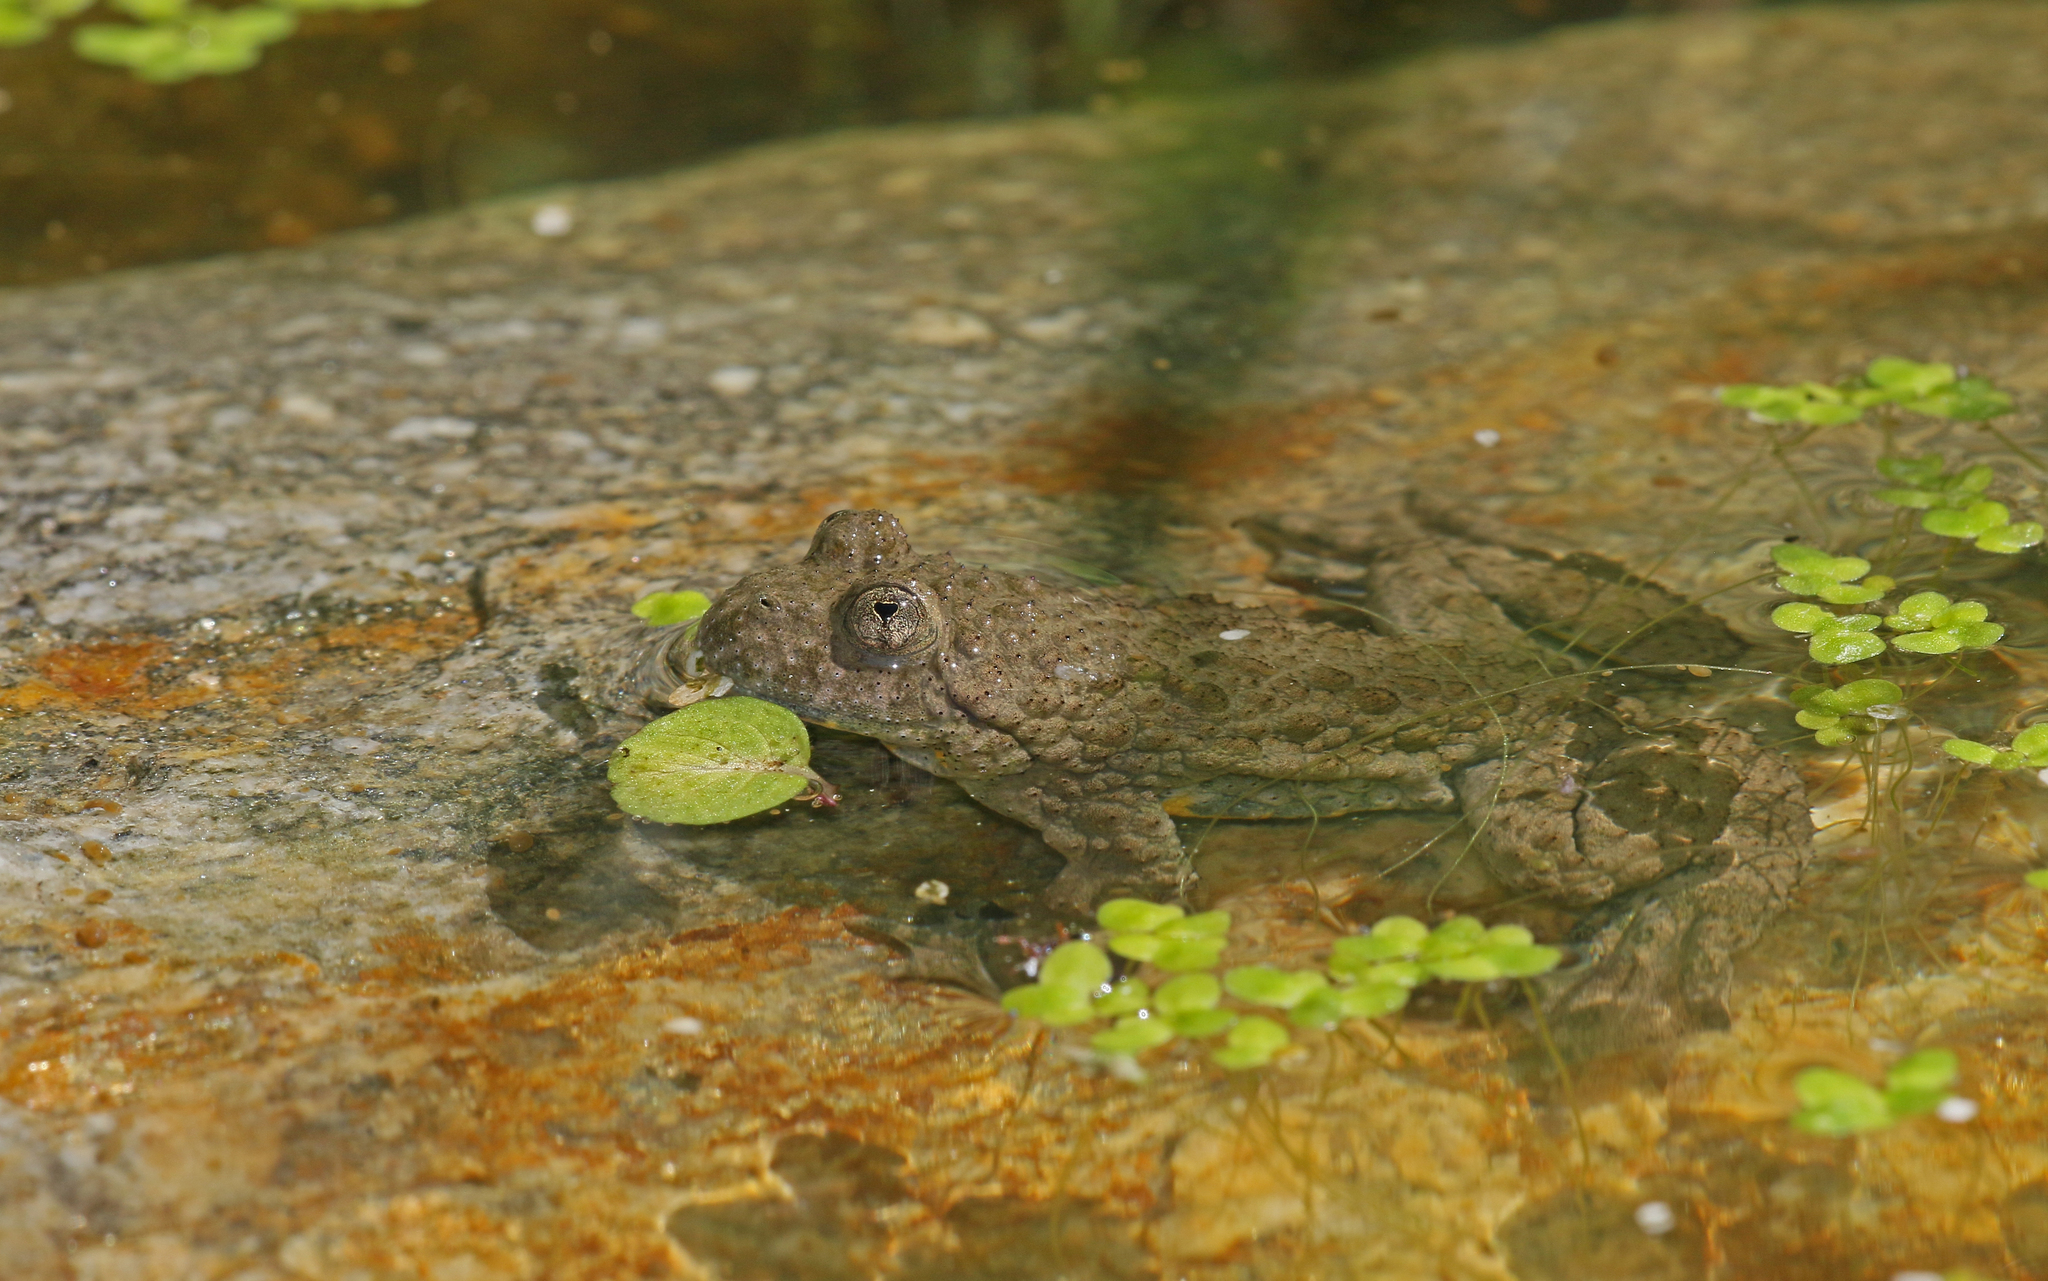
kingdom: Animalia
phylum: Chordata
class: Amphibia
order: Anura
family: Bombinatoridae
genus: Bombina
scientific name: Bombina variegata
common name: Yellow-bellied toad
